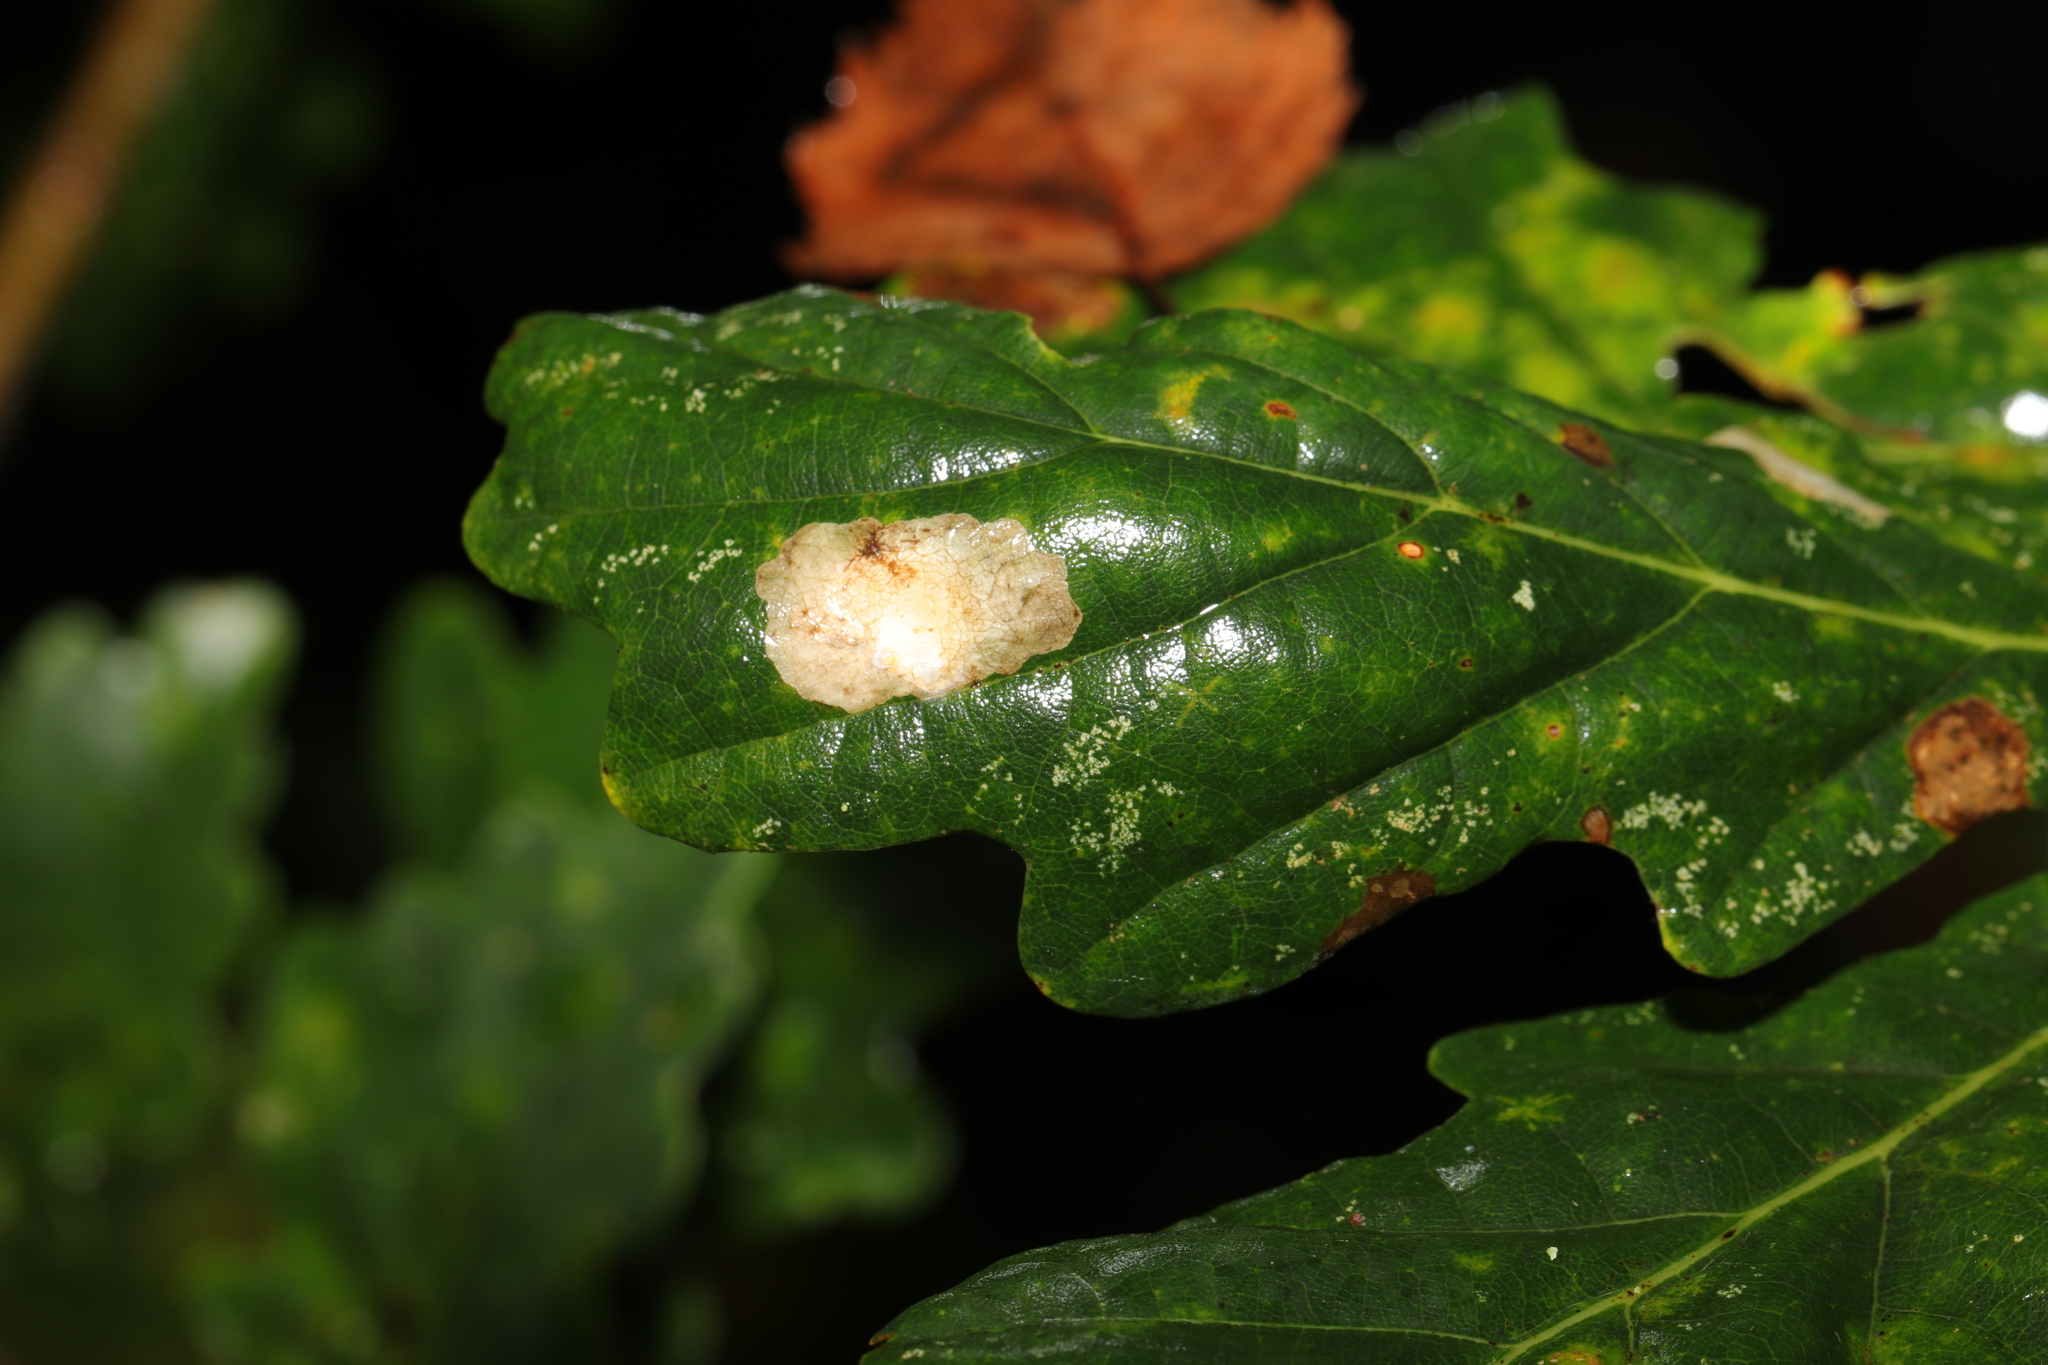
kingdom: Animalia
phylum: Arthropoda
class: Insecta
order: Lepidoptera
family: Tischeriidae
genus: Tischeria
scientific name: Tischeria ekebladella
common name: Oak carl
